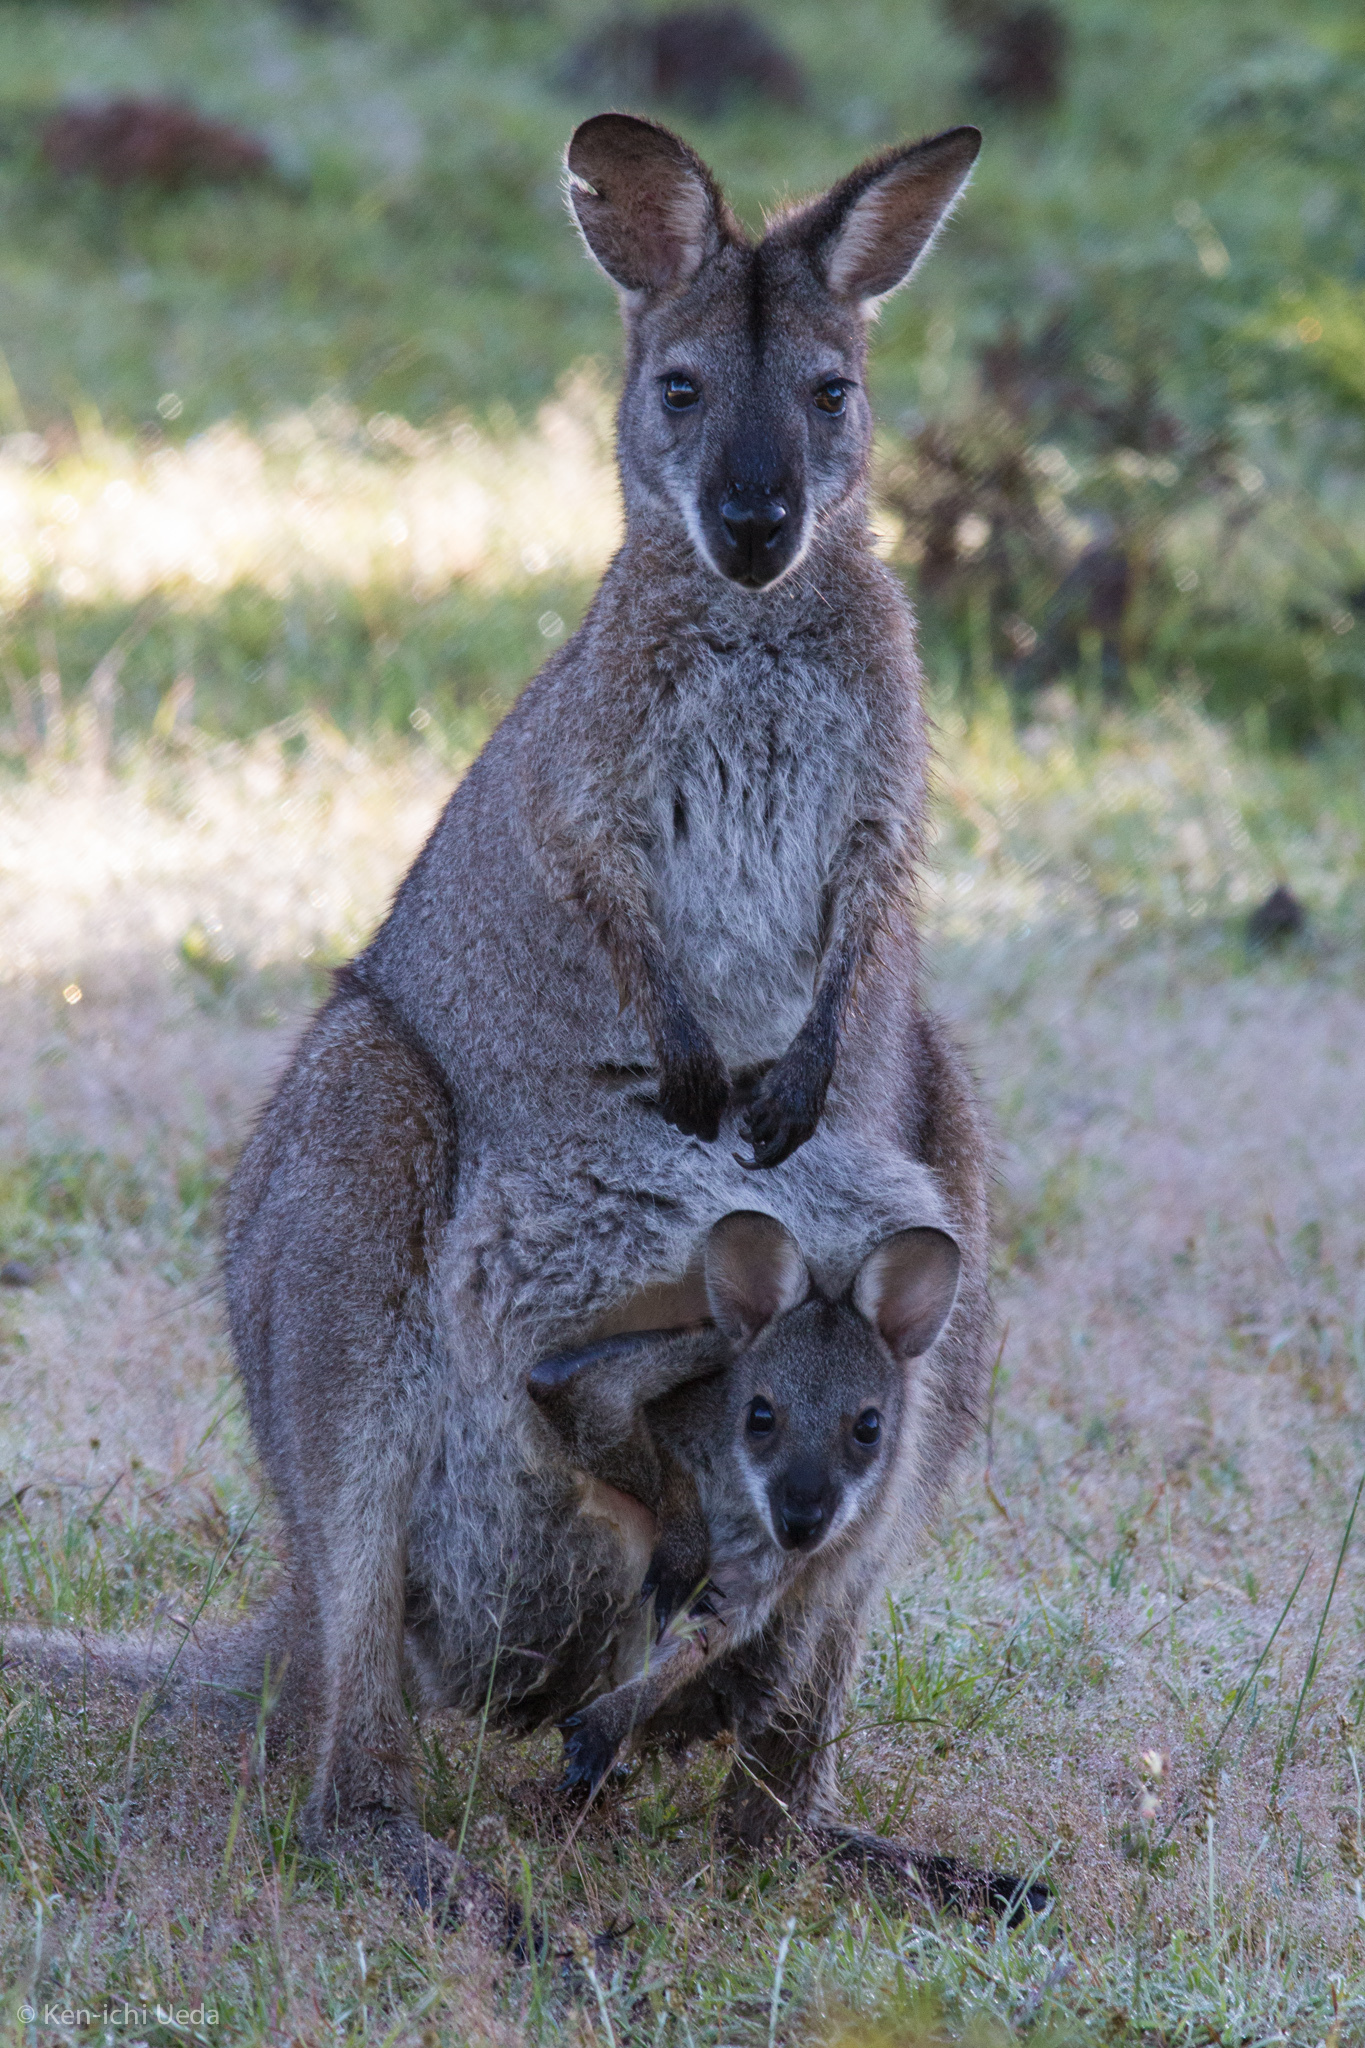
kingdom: Animalia
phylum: Chordata
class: Mammalia
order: Diprotodontia
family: Macropodidae
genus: Notamacropus
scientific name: Notamacropus rufogriseus
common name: Red-necked wallaby
